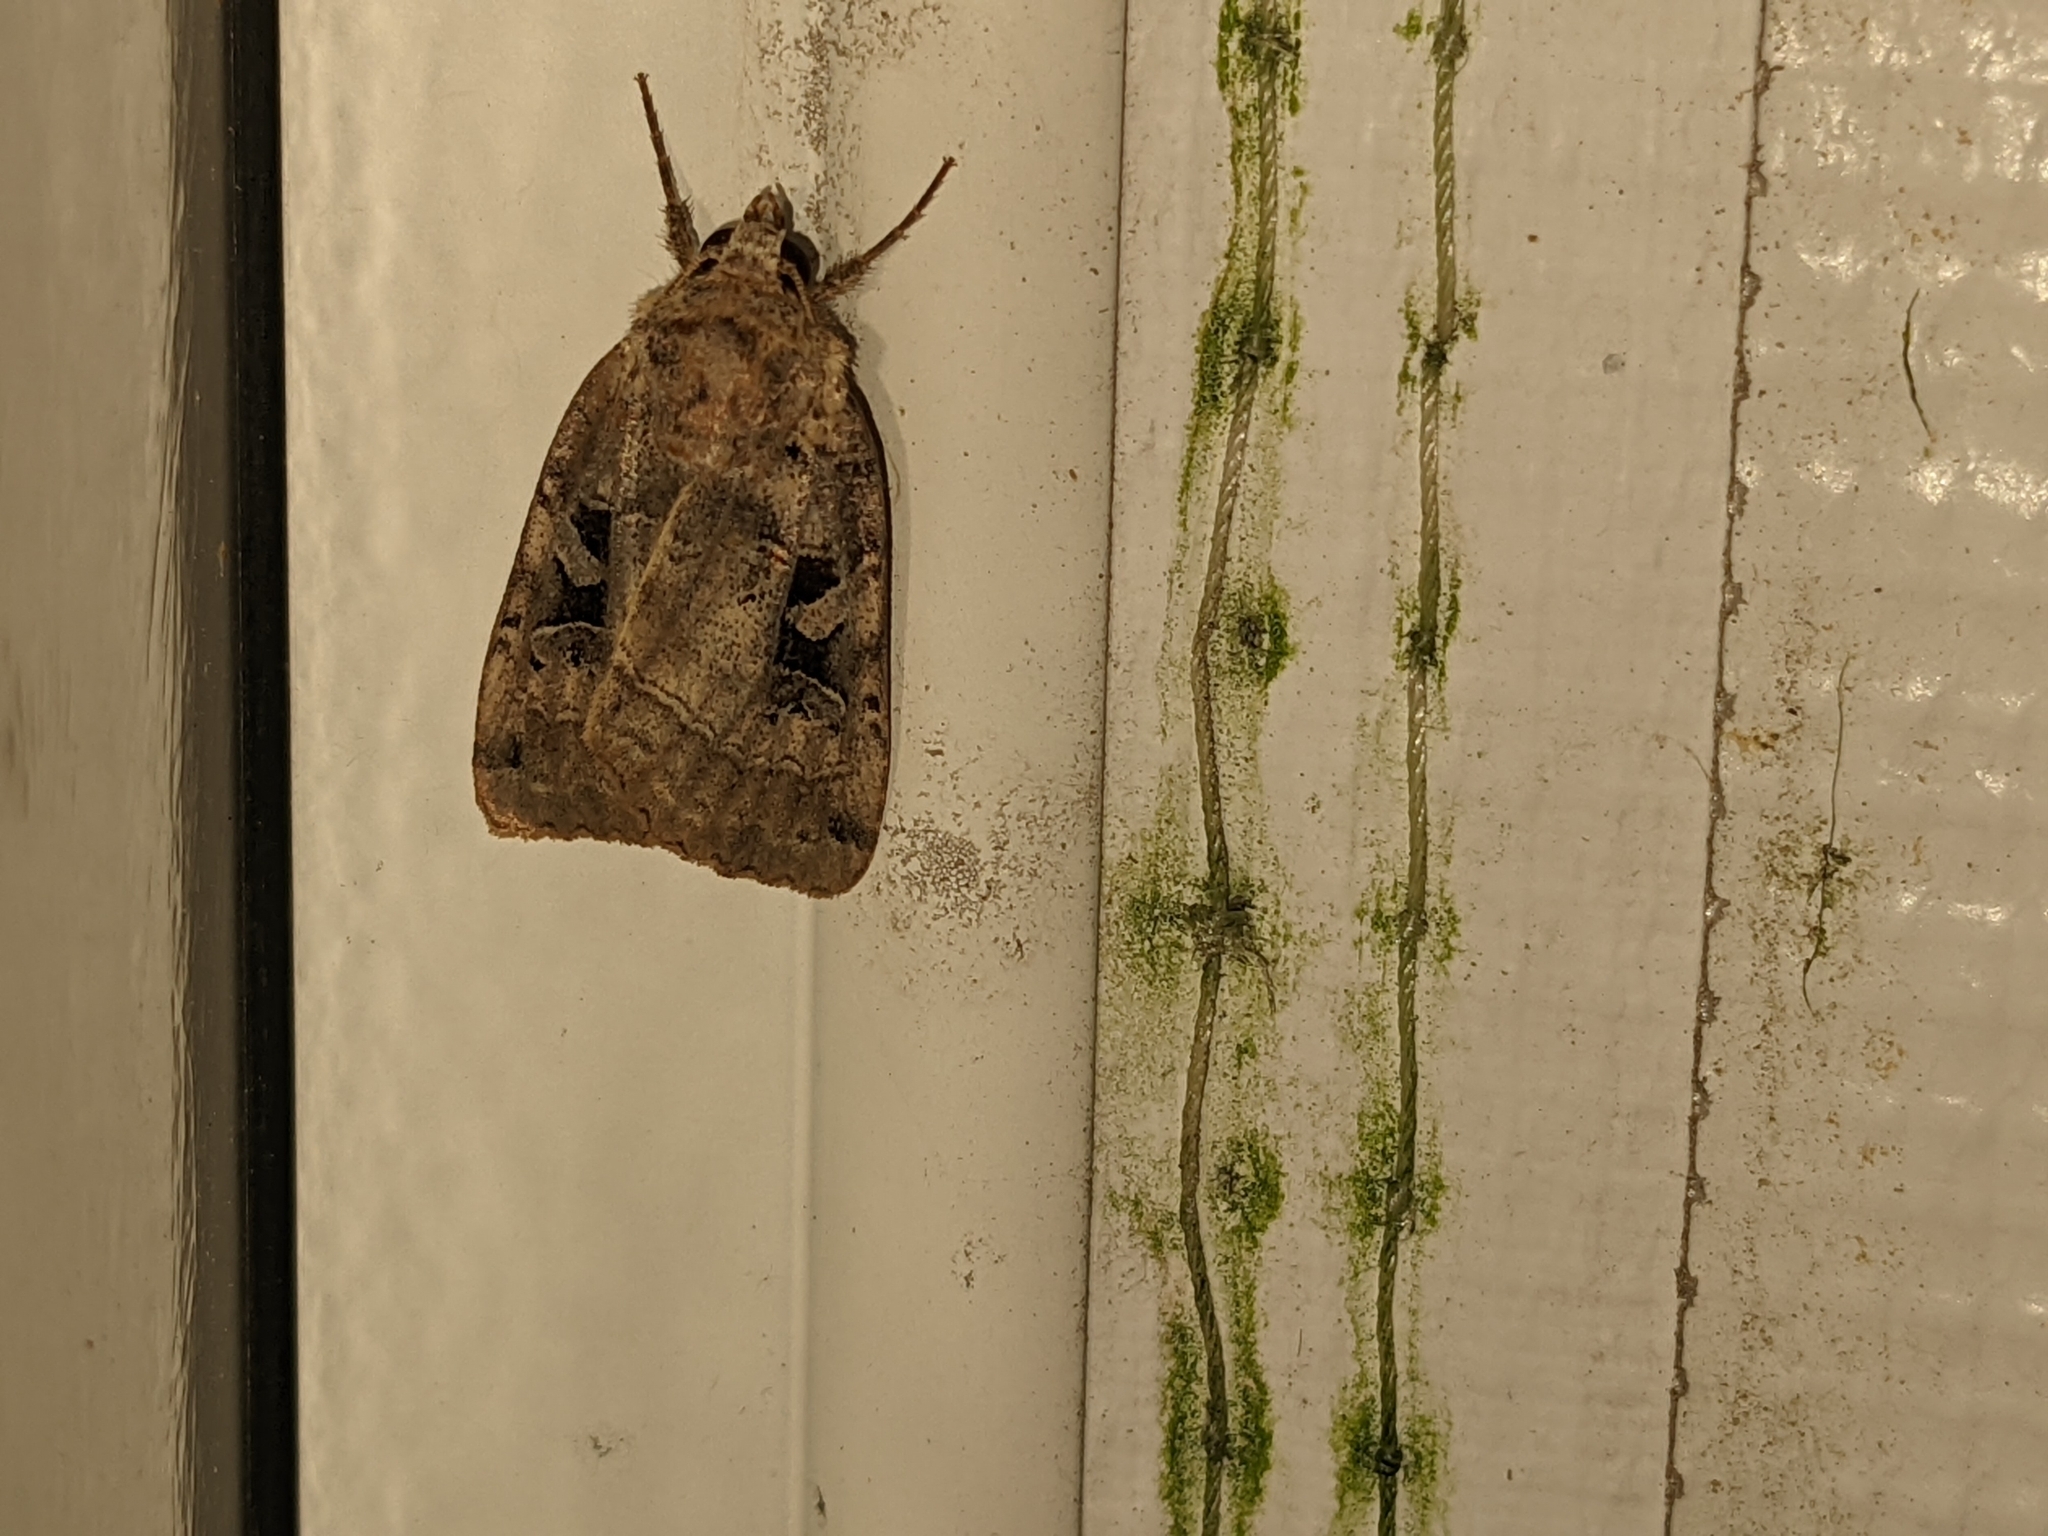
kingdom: Animalia
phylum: Arthropoda
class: Insecta
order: Lepidoptera
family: Noctuidae
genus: Xestia
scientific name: Xestia normaniana
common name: Norman's dart moth
